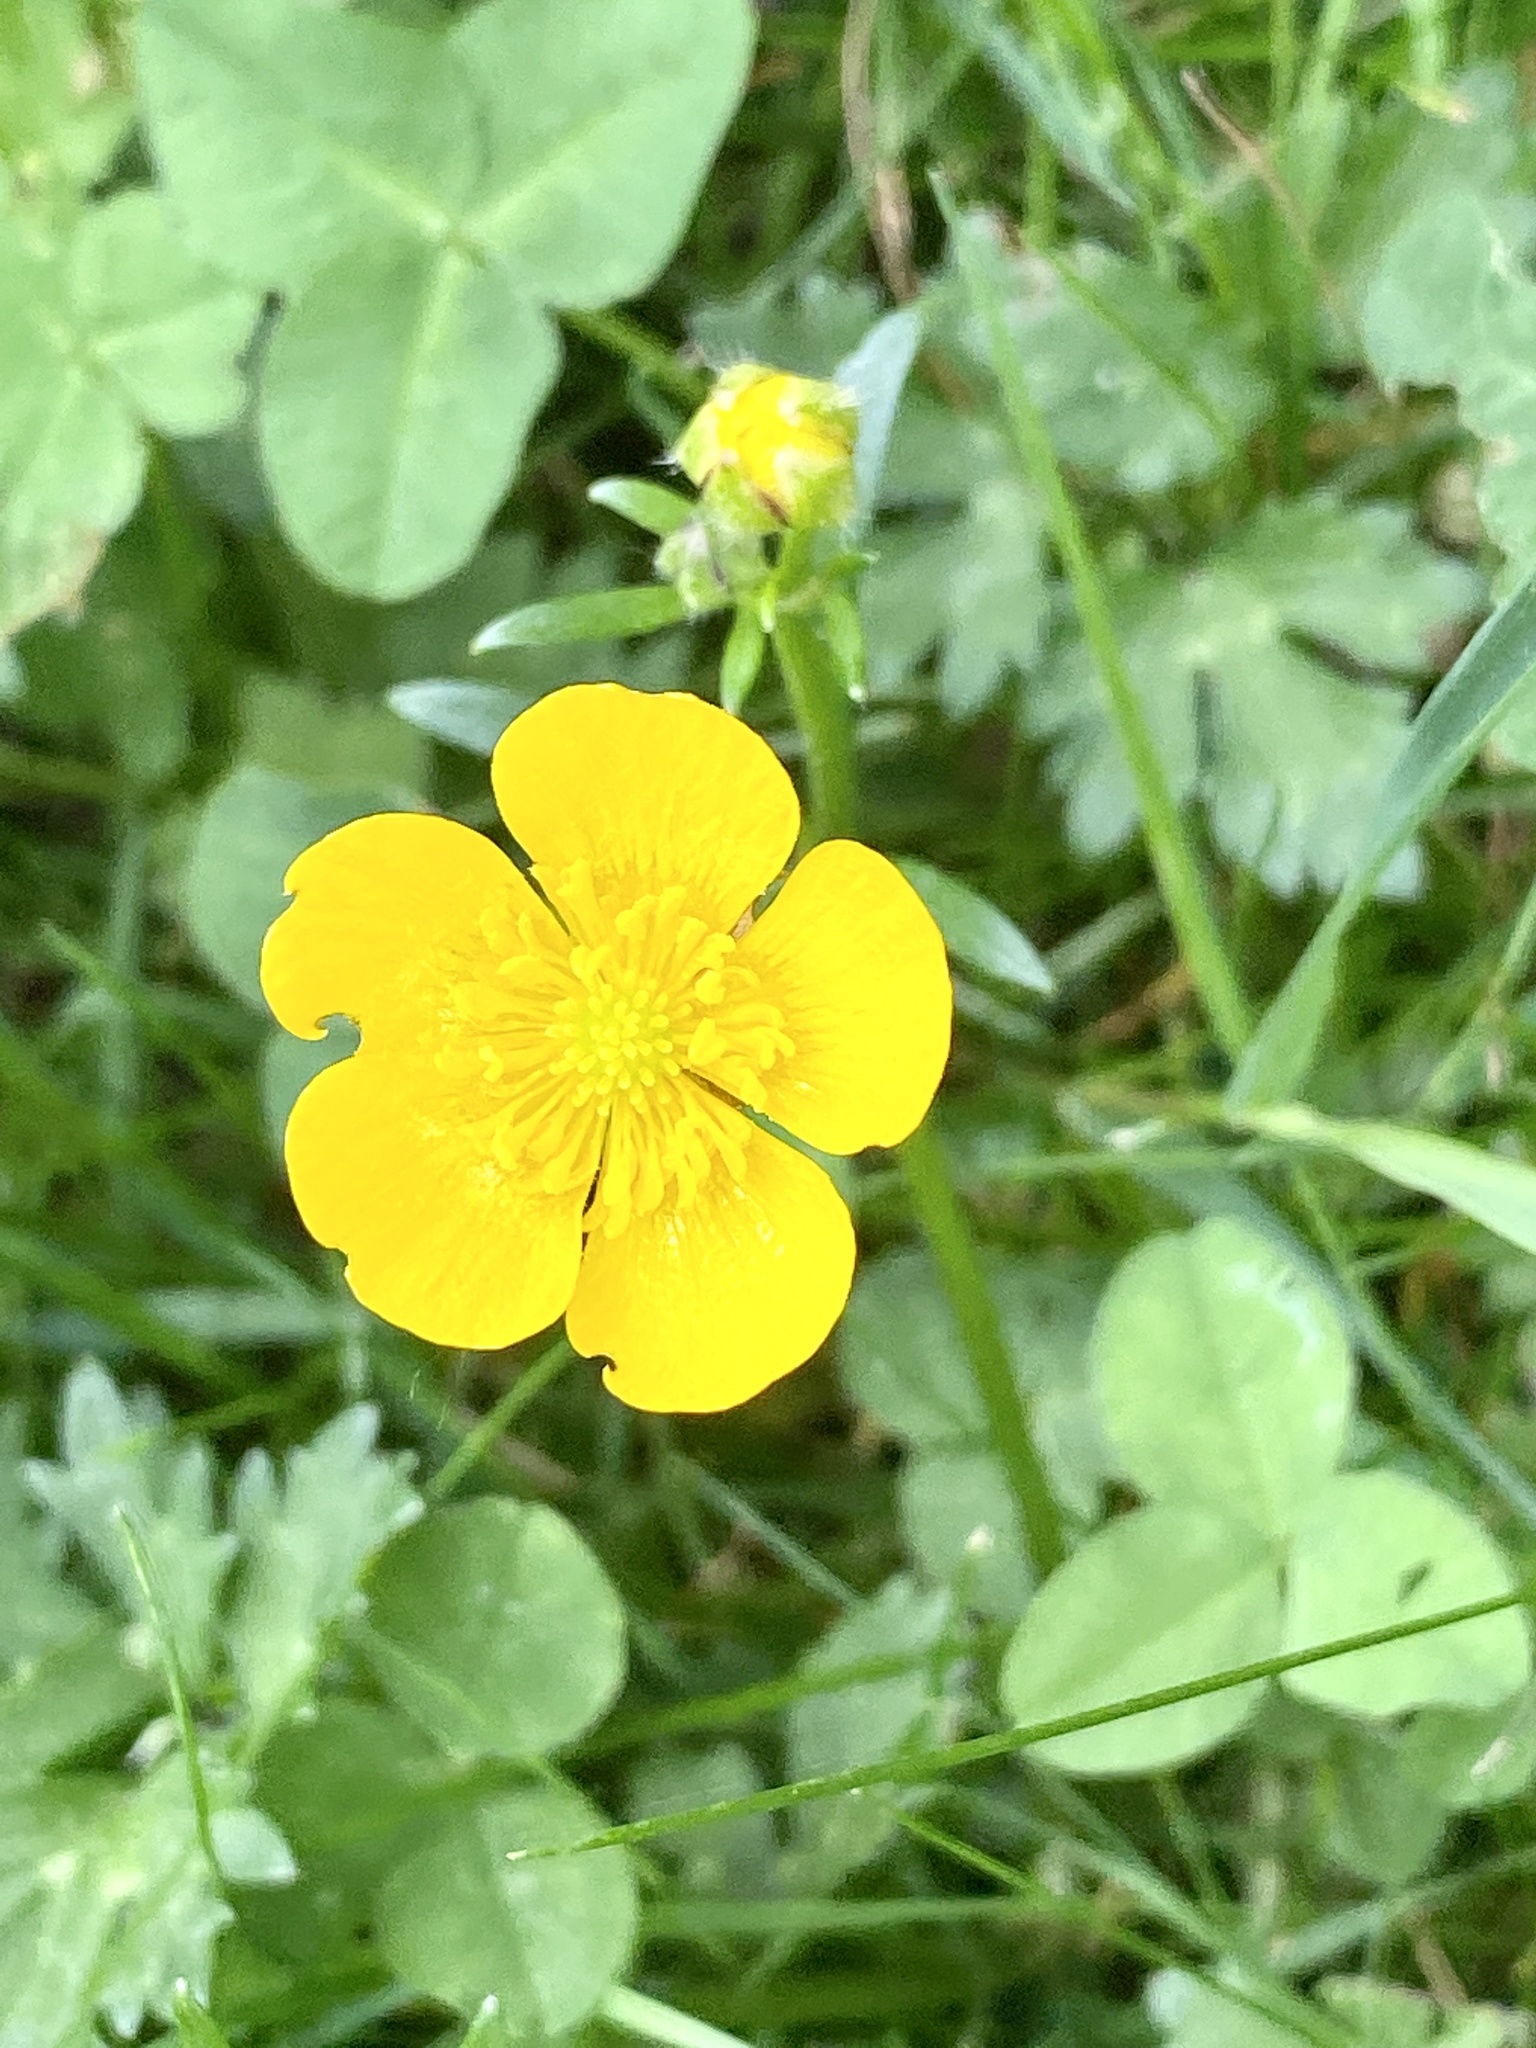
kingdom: Plantae
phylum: Tracheophyta
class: Magnoliopsida
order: Ranunculales
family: Ranunculaceae
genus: Ranunculus
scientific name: Ranunculus repens
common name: Creeping buttercup
